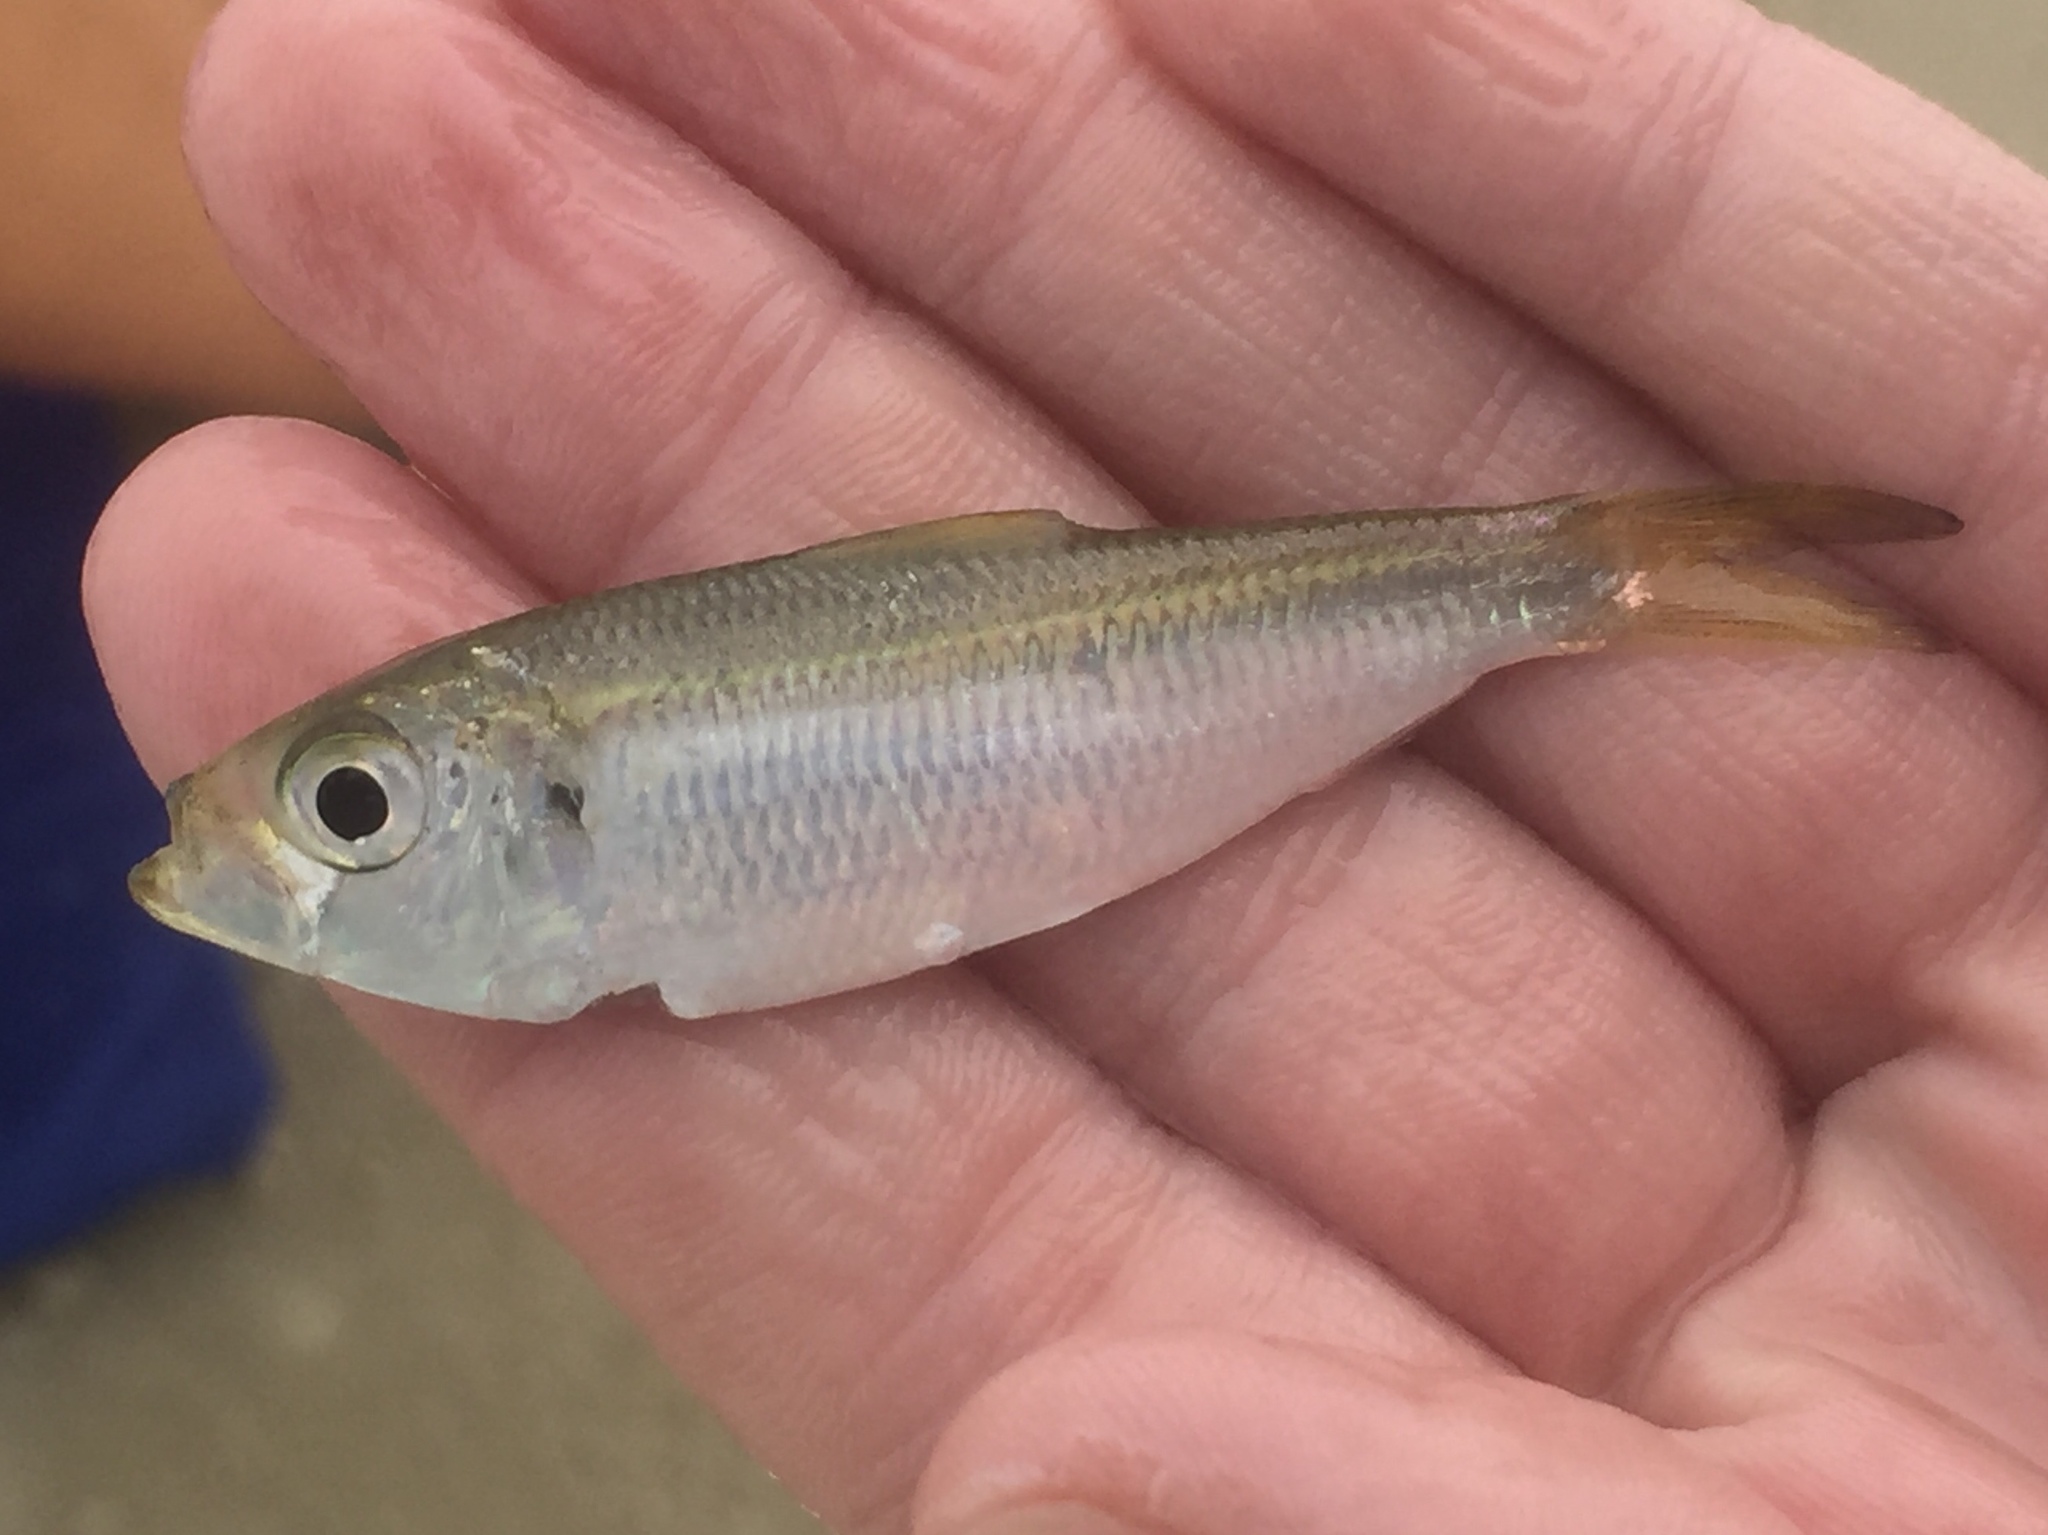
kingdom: Animalia
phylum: Chordata
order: Clupeiformes
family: Clupeidae
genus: Harengula
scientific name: Harengula jaguana
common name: Scaled sardine
